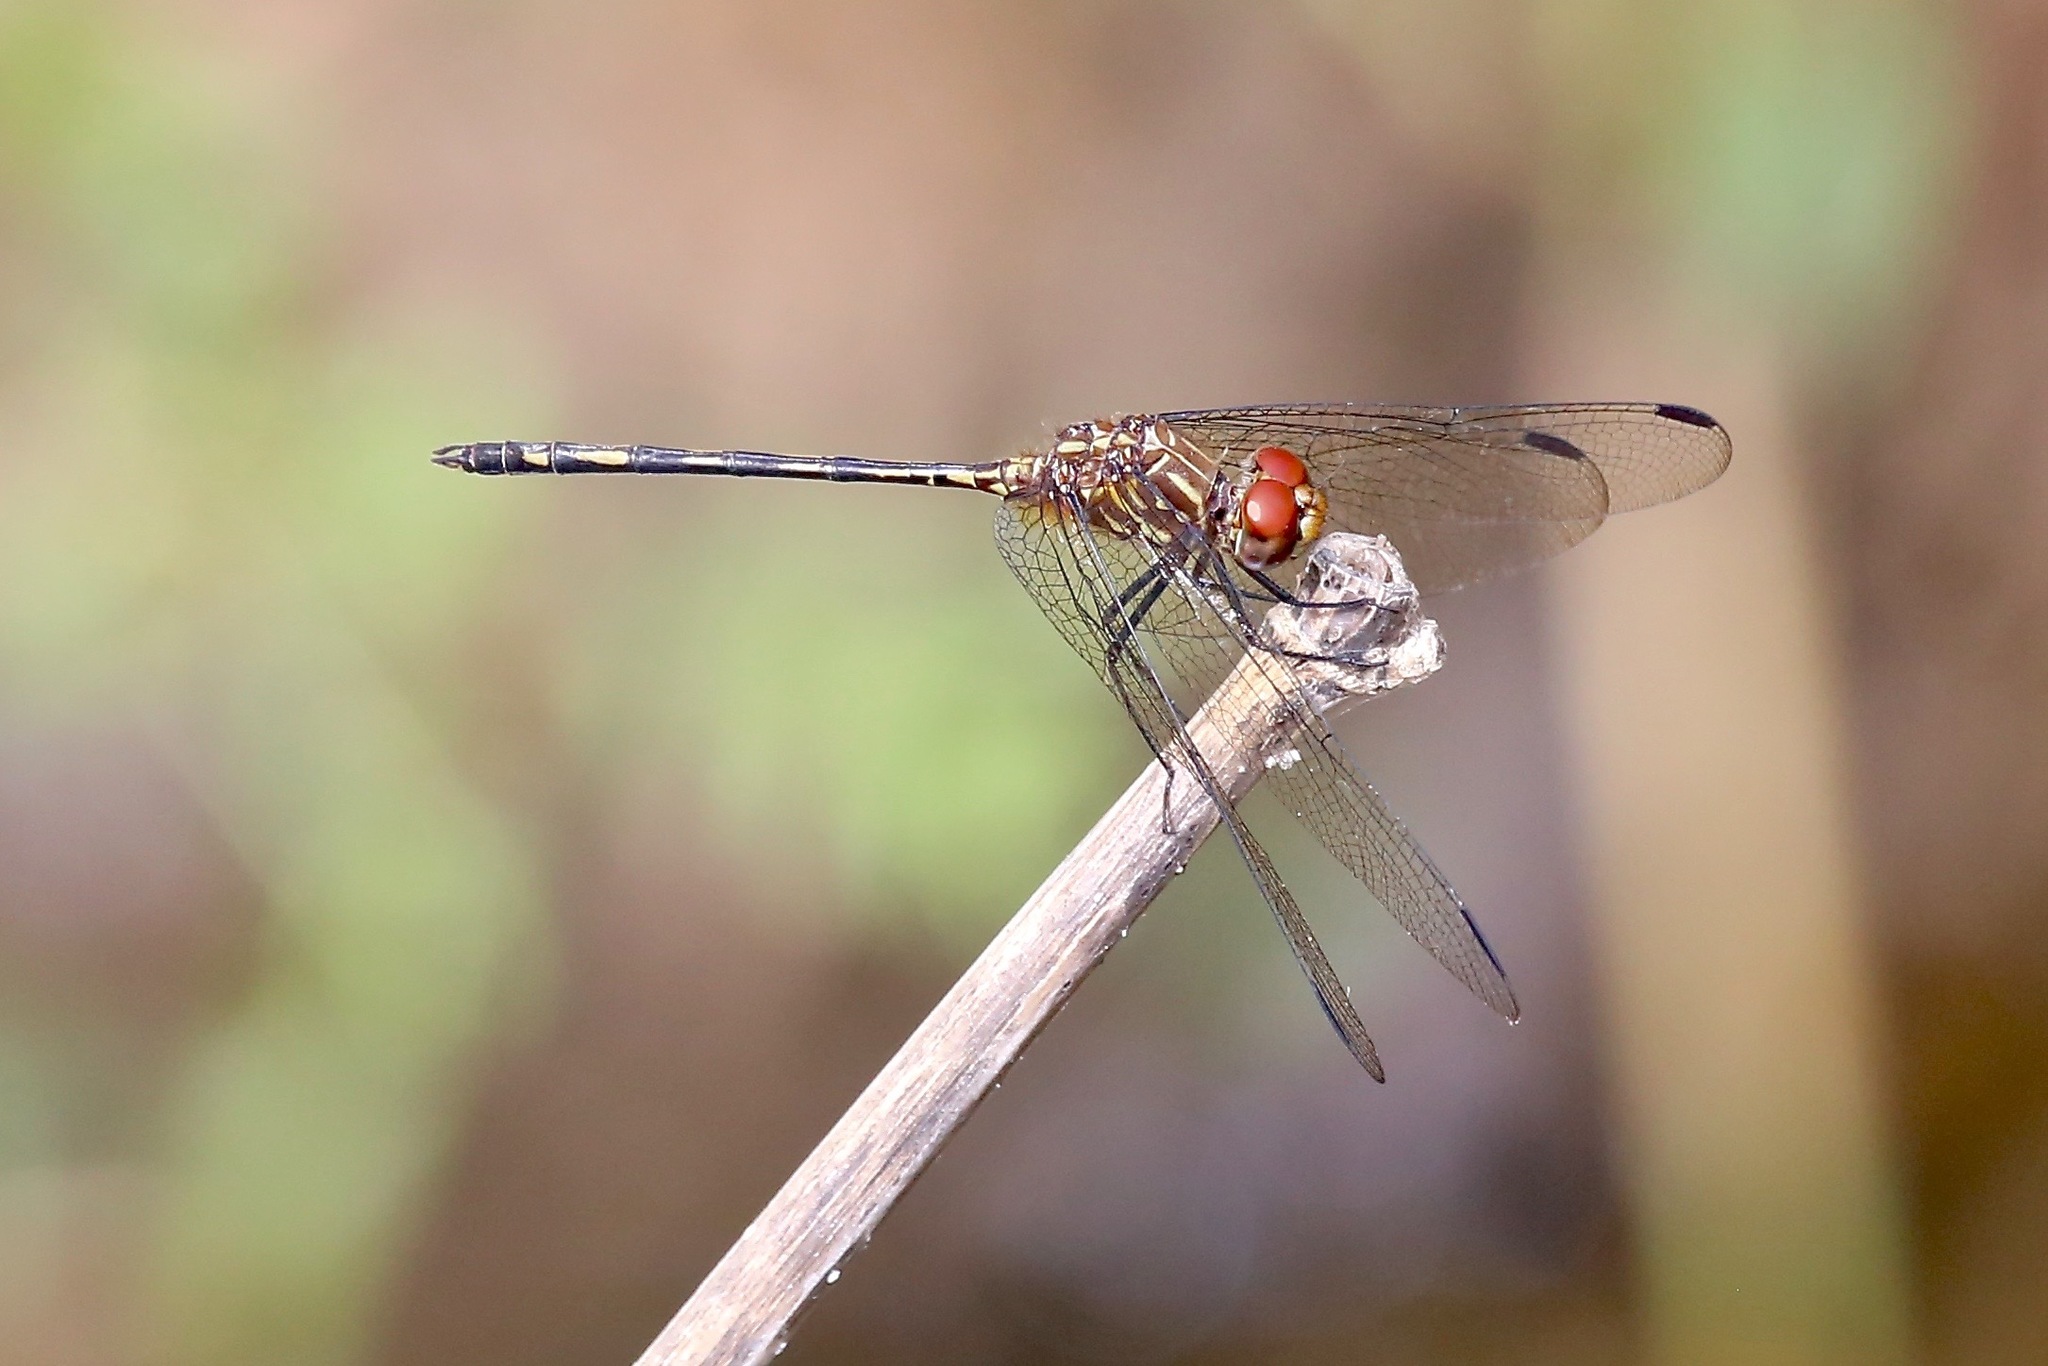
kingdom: Animalia
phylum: Arthropoda
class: Insecta
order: Odonata
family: Libellulidae
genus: Dythemis
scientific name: Dythemis sterilis
